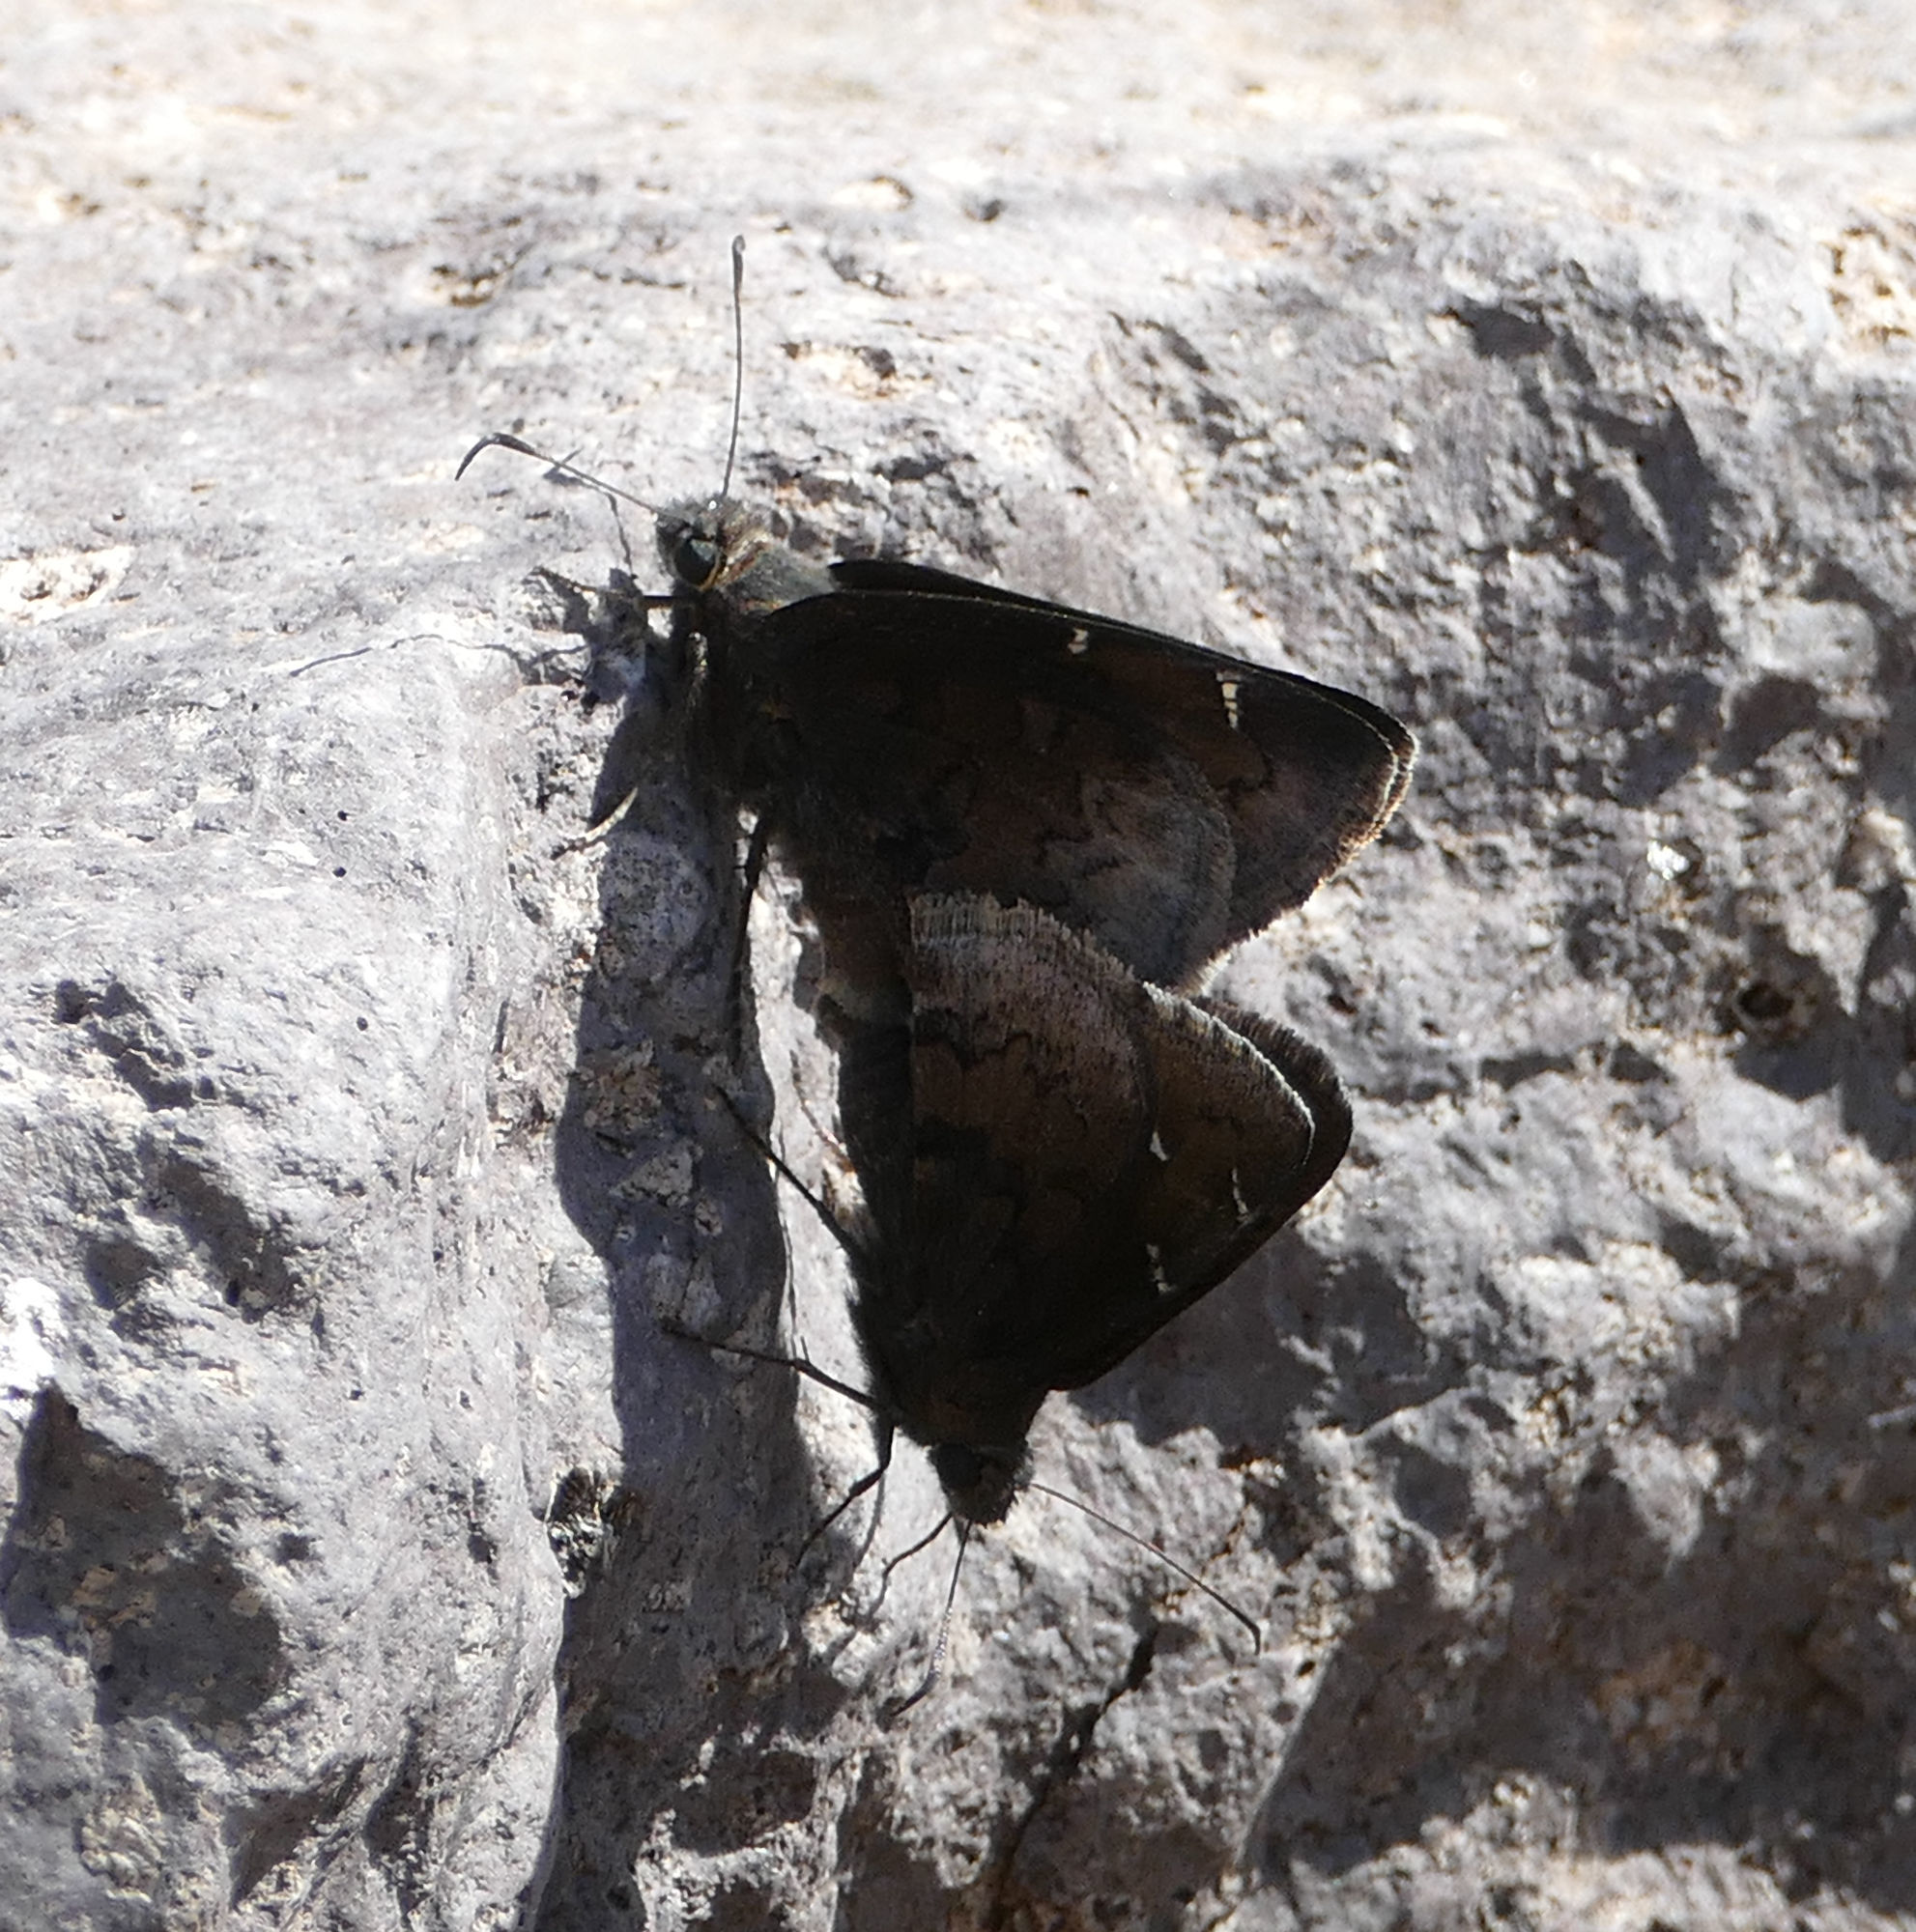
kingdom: Animalia
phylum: Arthropoda
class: Insecta
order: Lepidoptera
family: Hesperiidae
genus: Thorybes
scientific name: Thorybes pylades
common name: Northern cloudywing
